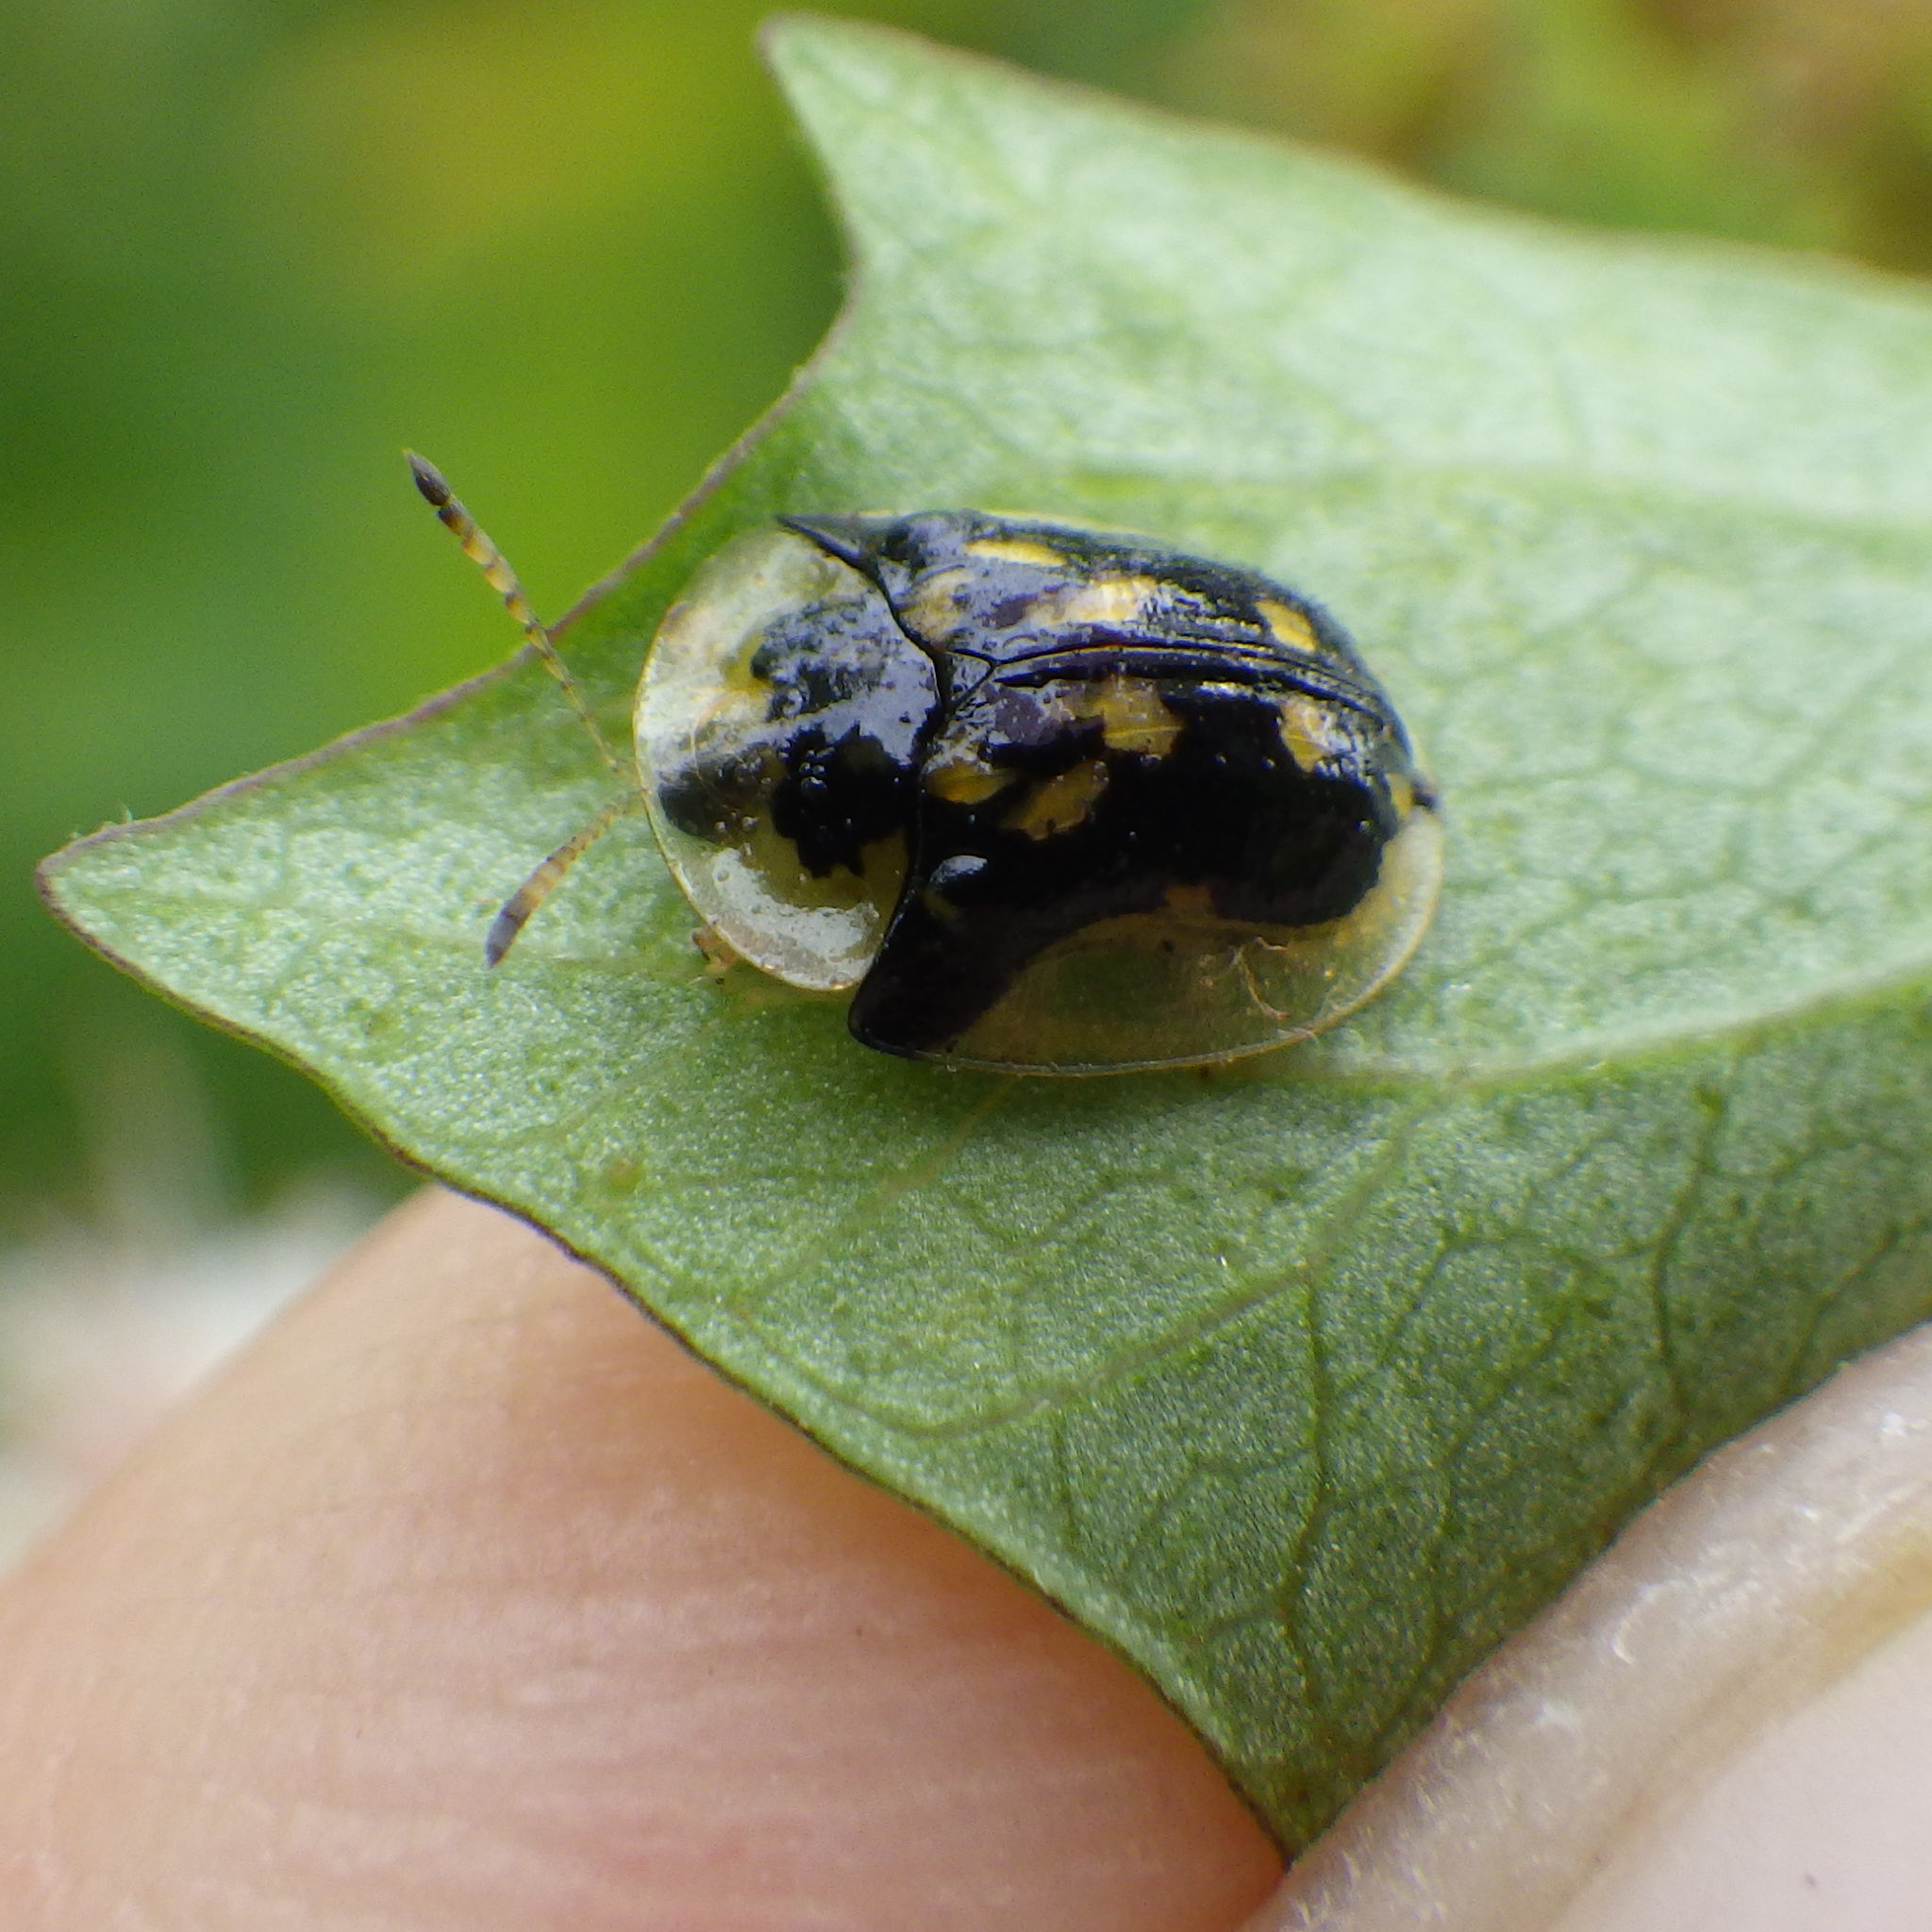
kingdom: Animalia
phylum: Arthropoda
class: Insecta
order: Coleoptera
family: Chrysomelidae
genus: Deloyala
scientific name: Deloyala guttata
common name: Mottled tortoise beetle
